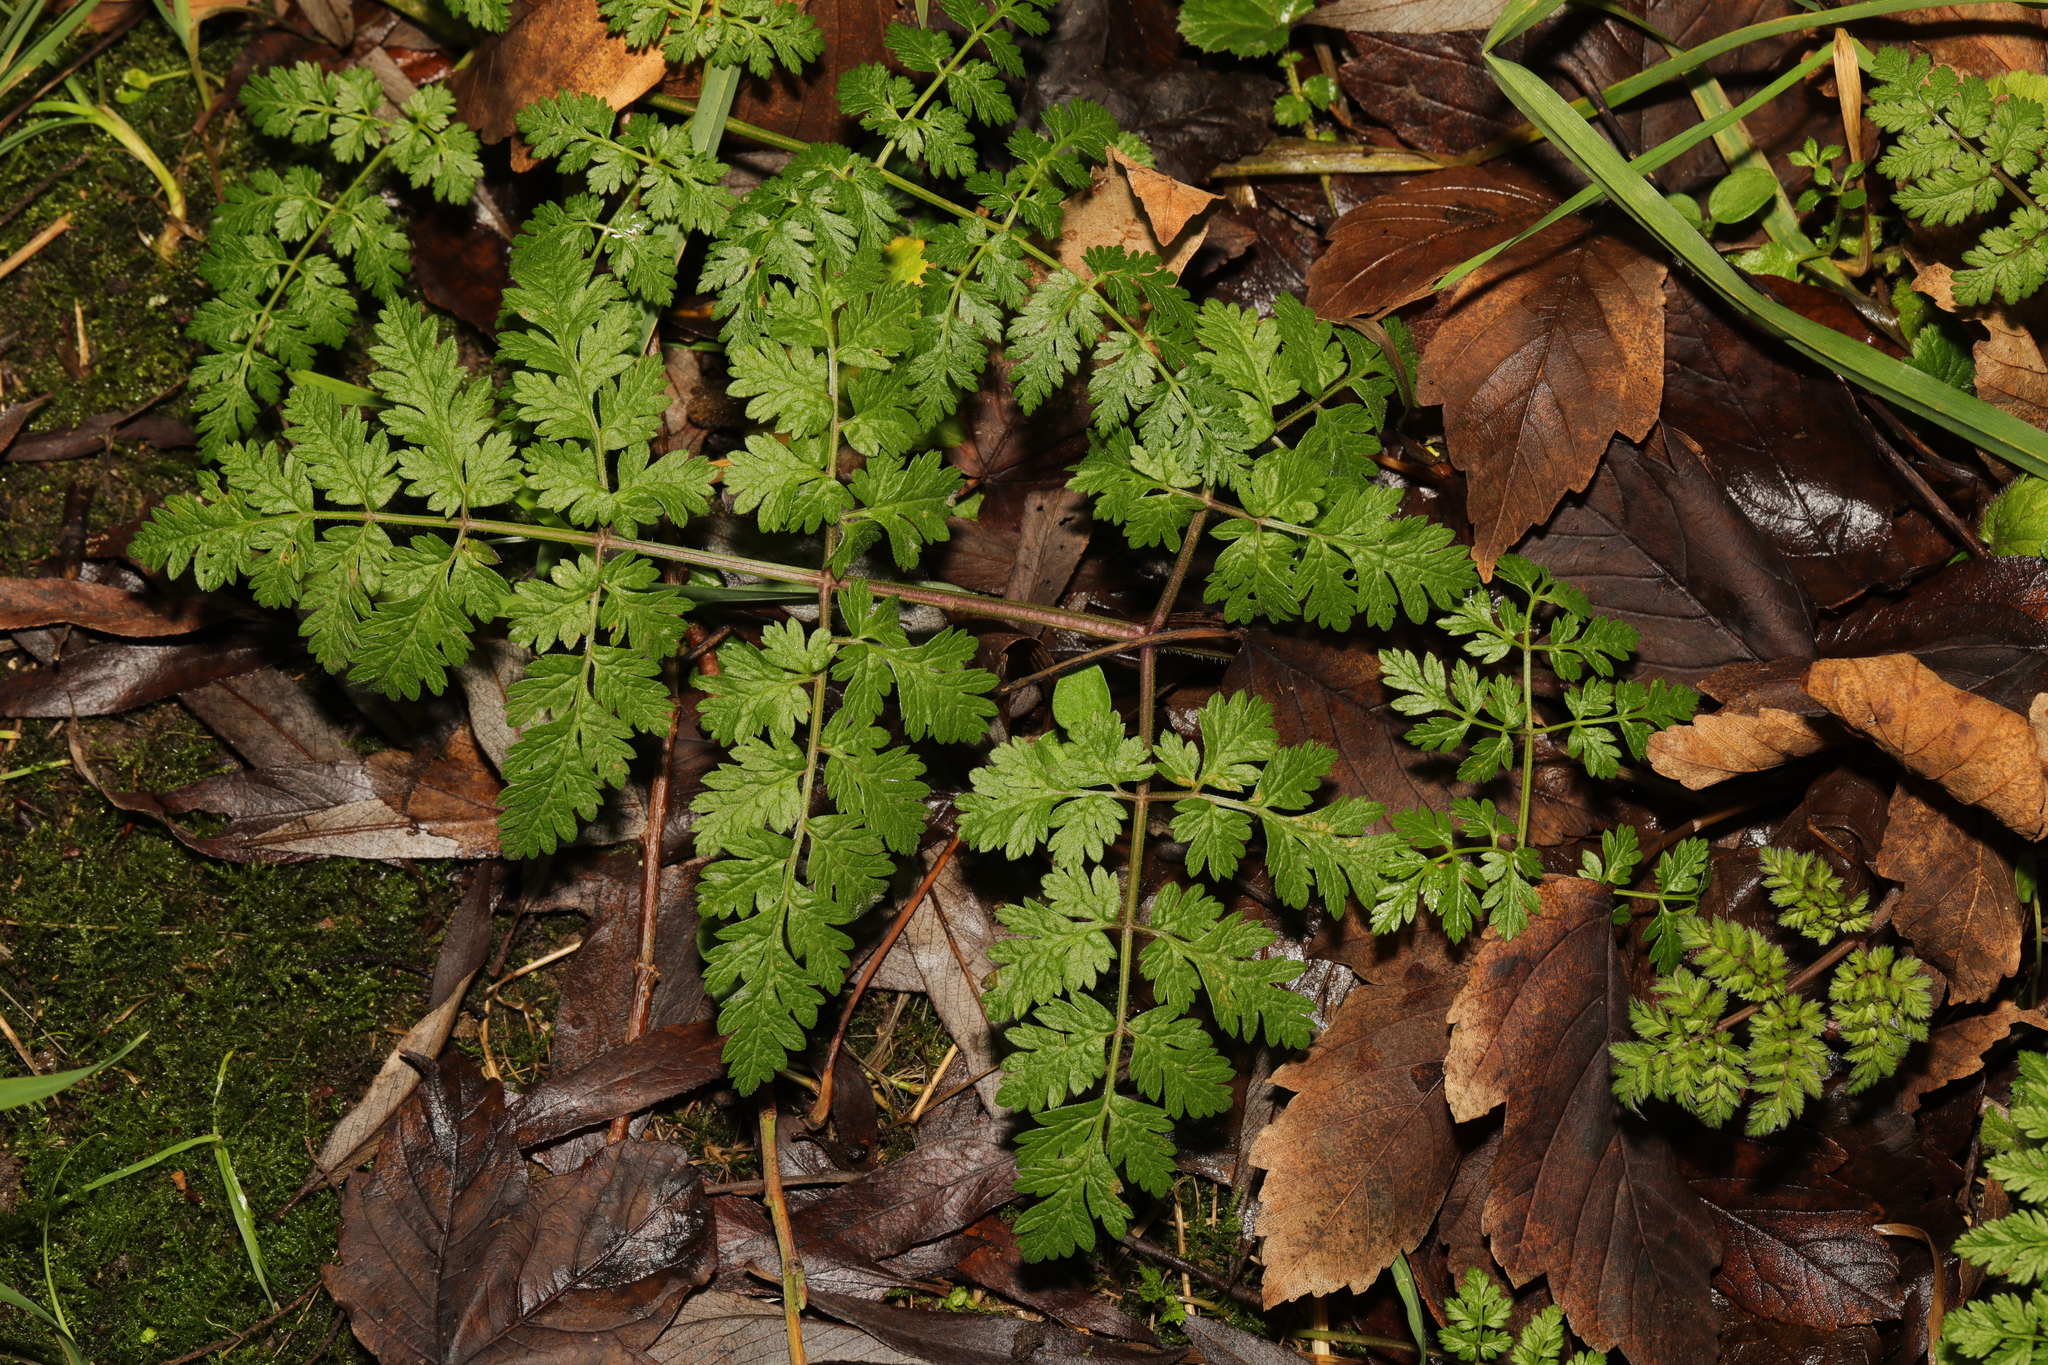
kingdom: Plantae
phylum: Tracheophyta
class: Magnoliopsida
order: Apiales
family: Apiaceae
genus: Anthriscus
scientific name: Anthriscus sylvestris
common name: Cow parsley
